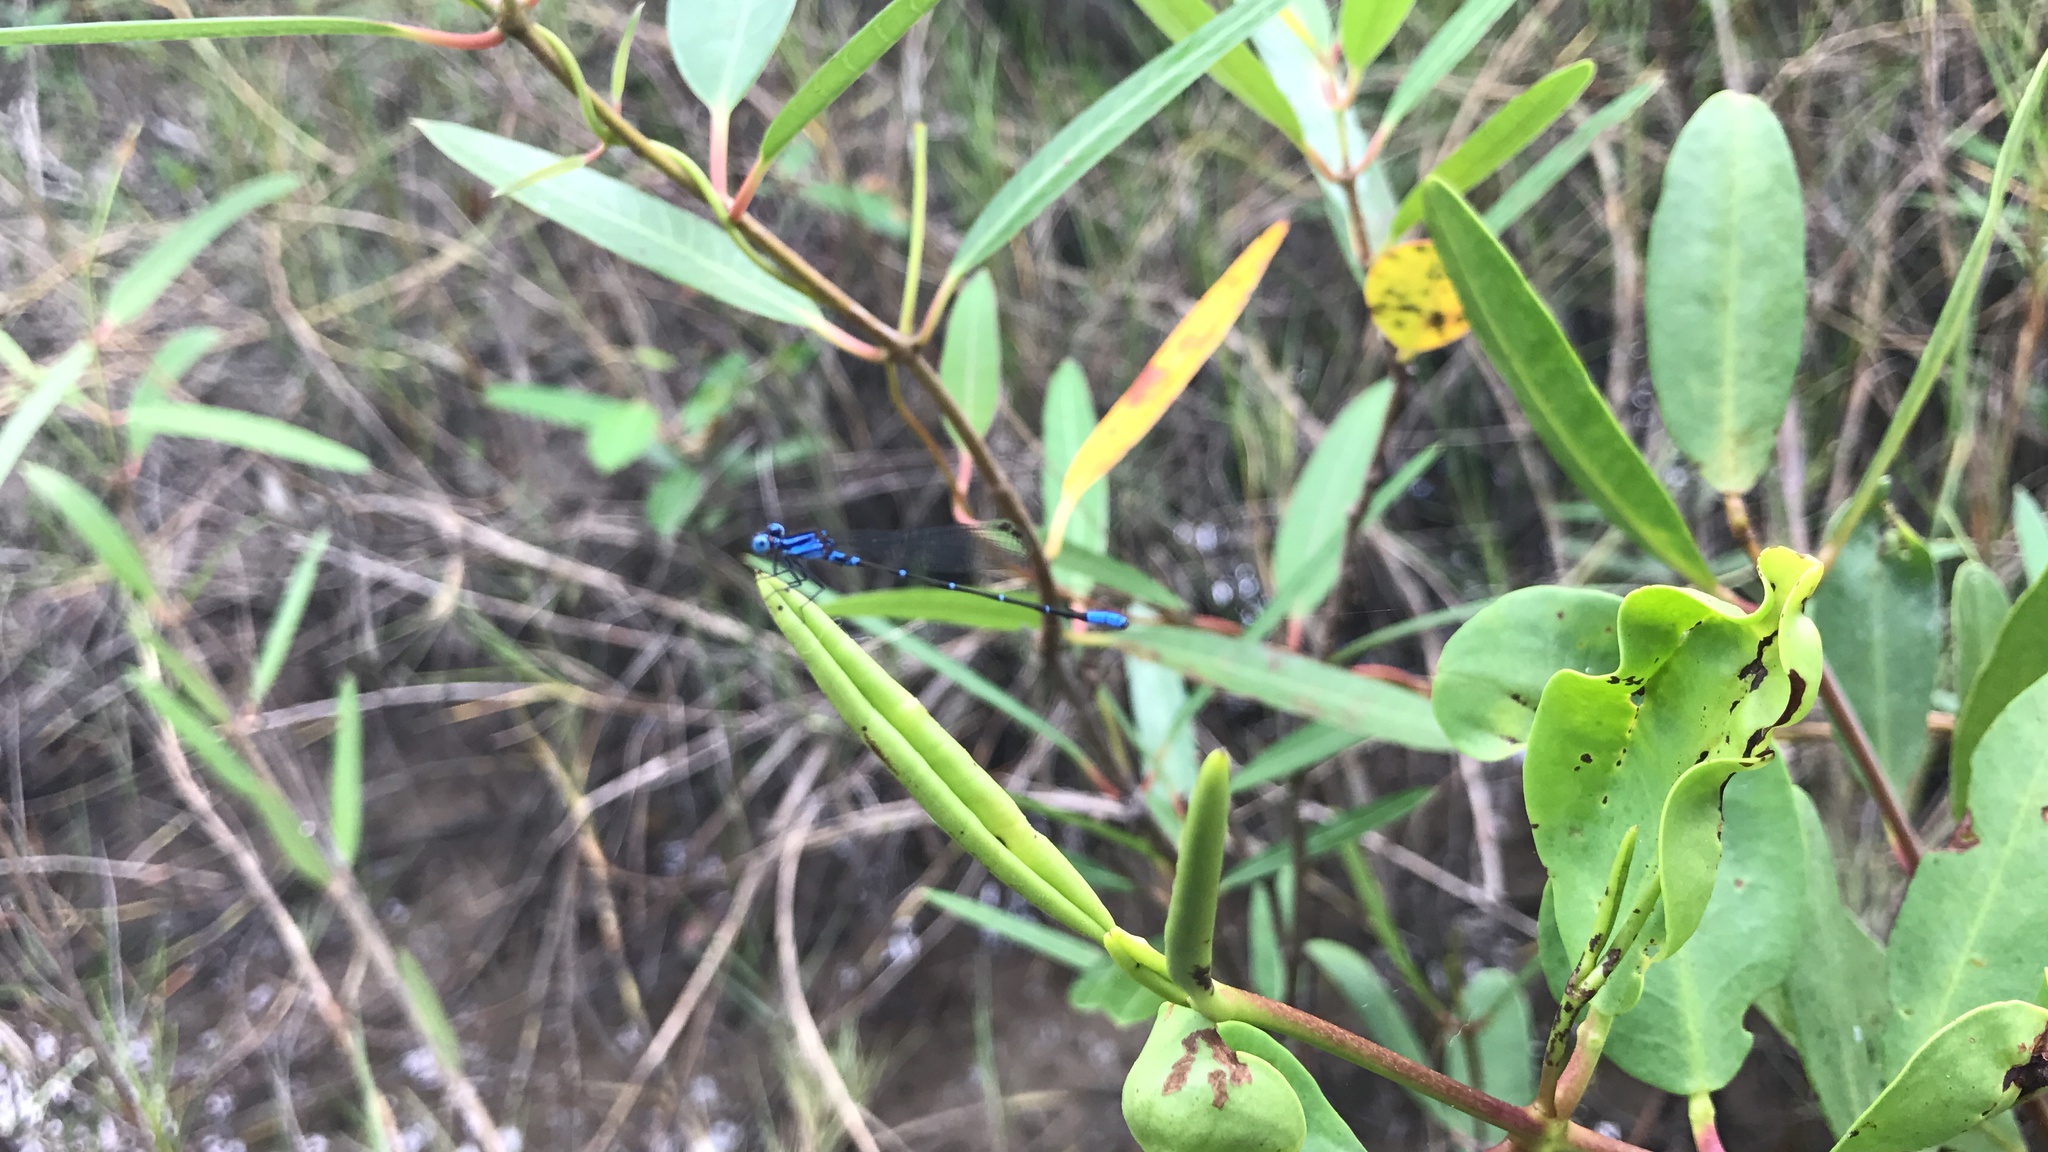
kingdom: Animalia
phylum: Arthropoda
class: Insecta
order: Odonata
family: Coenagrionidae
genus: Argia
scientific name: Argia gaumeri
